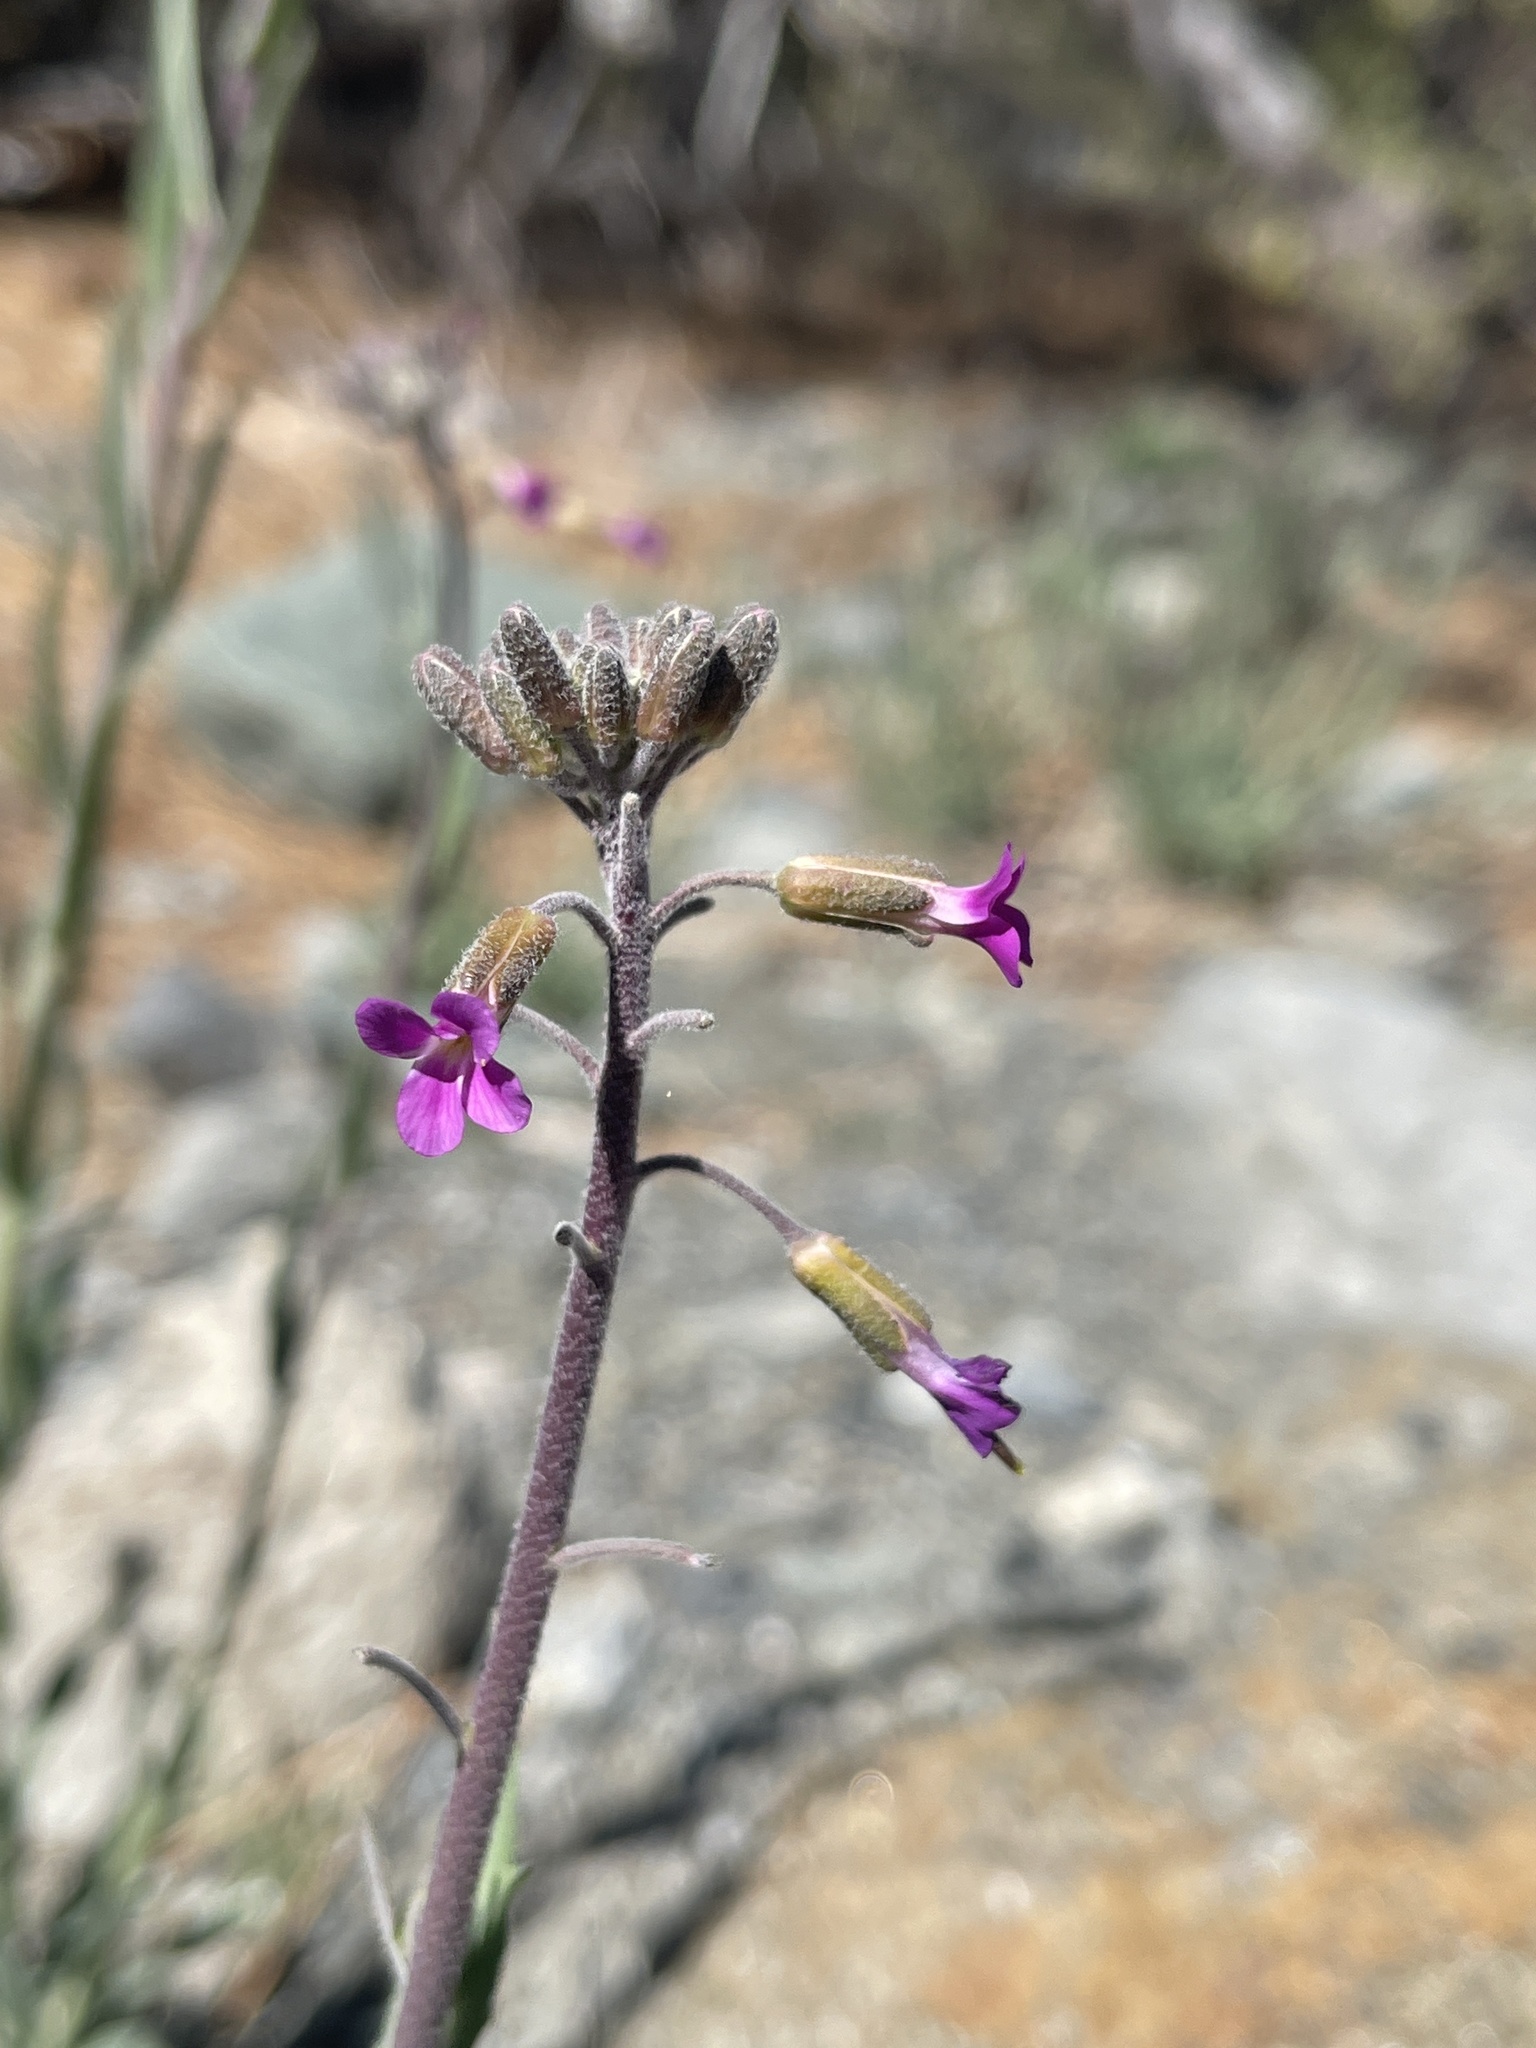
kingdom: Plantae
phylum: Tracheophyta
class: Magnoliopsida
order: Brassicales
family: Brassicaceae
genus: Boechera
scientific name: Boechera californica
